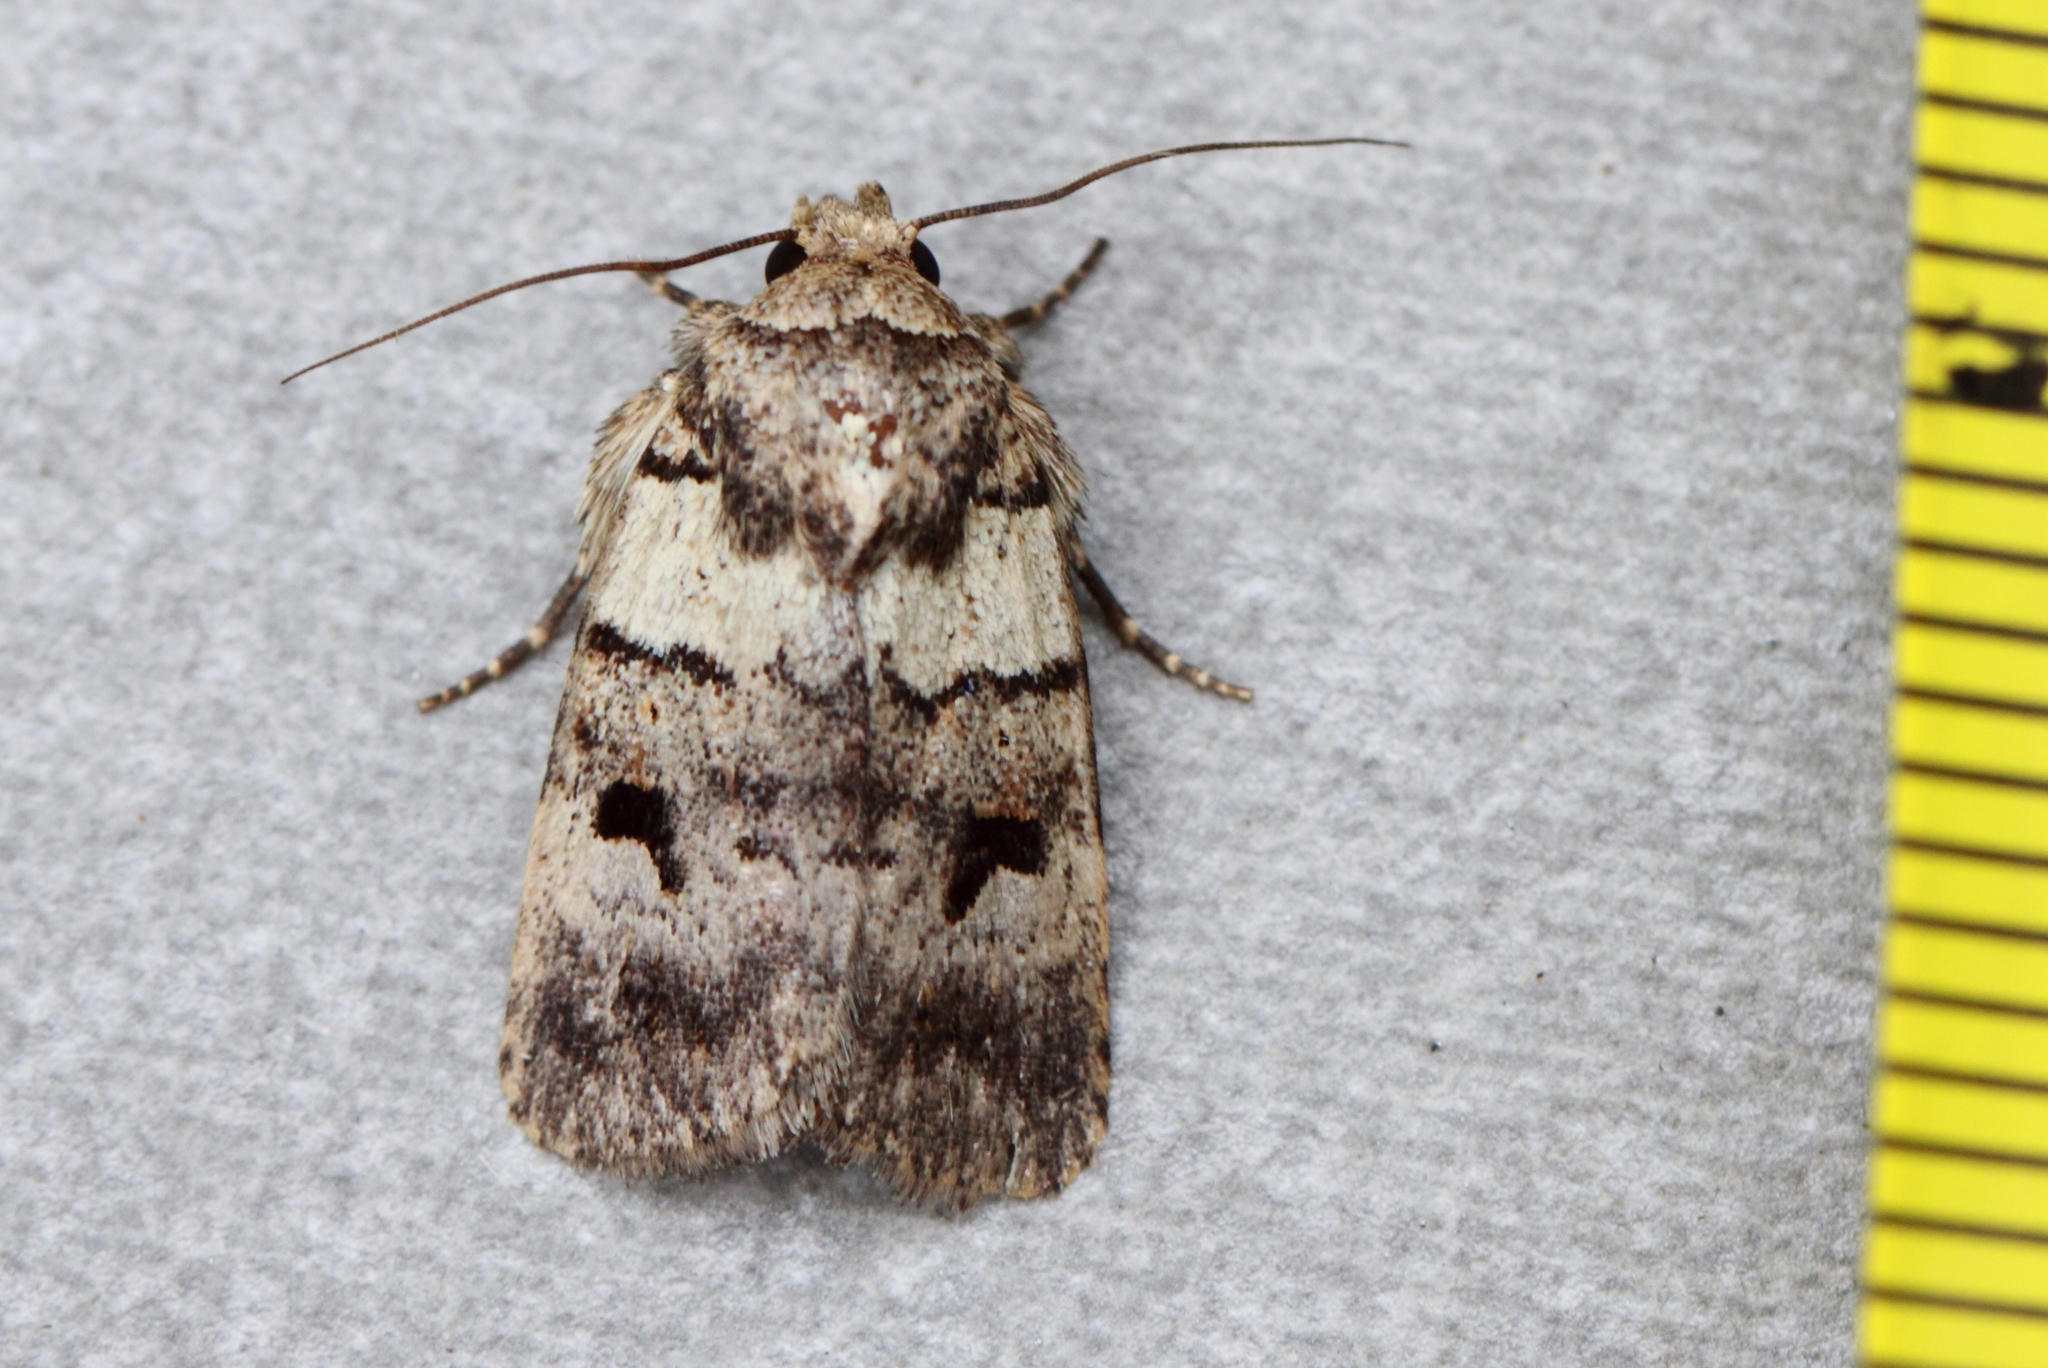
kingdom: Animalia
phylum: Arthropoda
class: Insecta
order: Lepidoptera
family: Noctuidae
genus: Thoracolopha
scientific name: Thoracolopha flexirena
